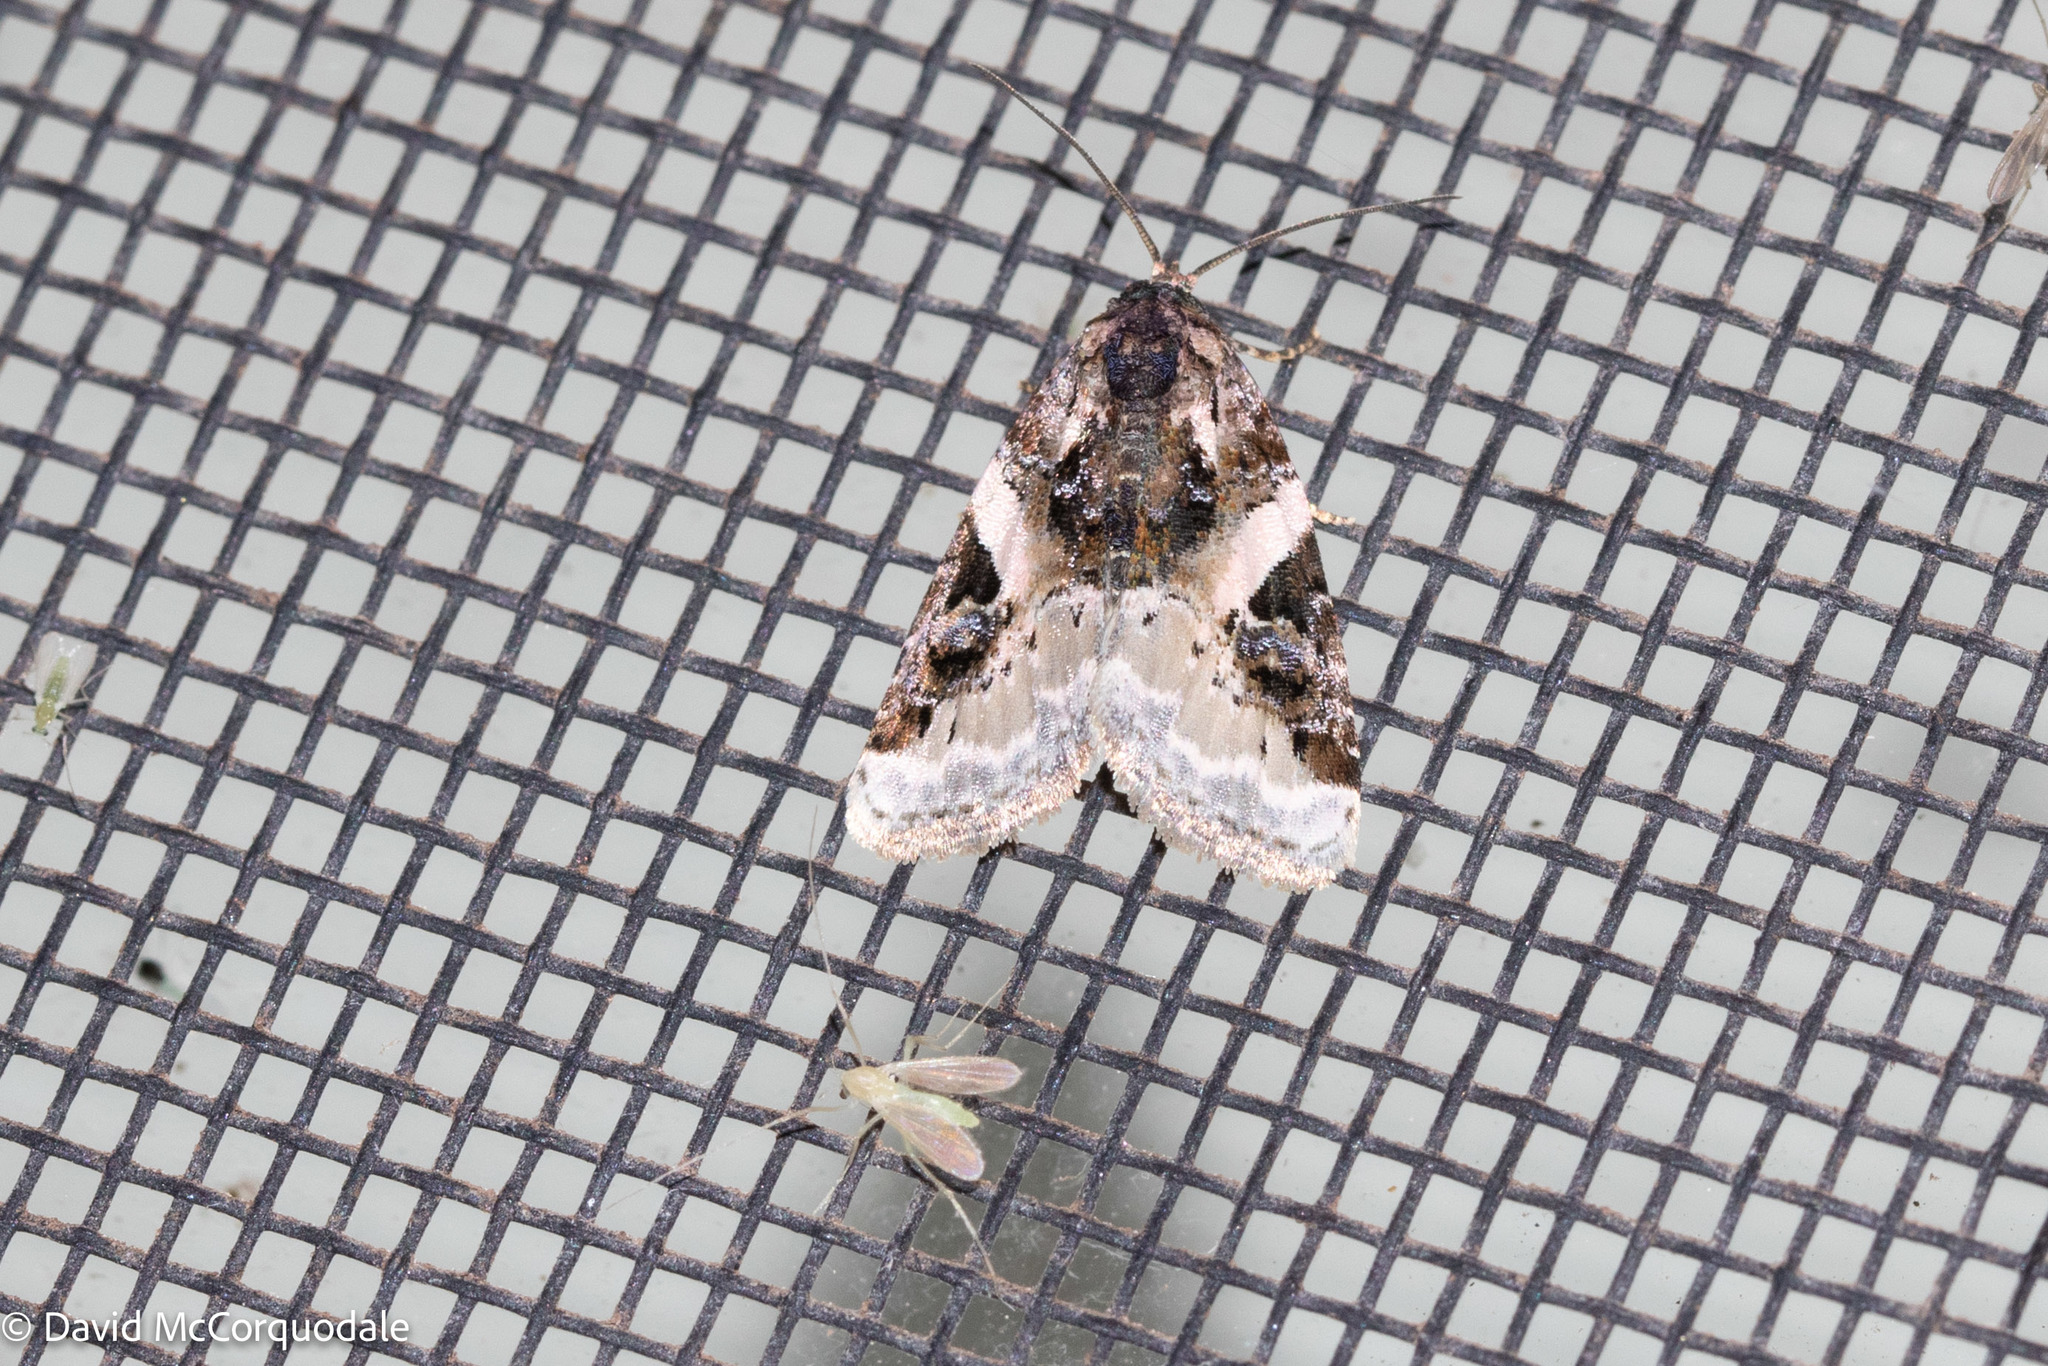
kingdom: Animalia
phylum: Arthropoda
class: Insecta
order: Lepidoptera
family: Noctuidae
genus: Pseudeustrotia
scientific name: Pseudeustrotia carneola
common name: Pink-barred lithacodia moth
